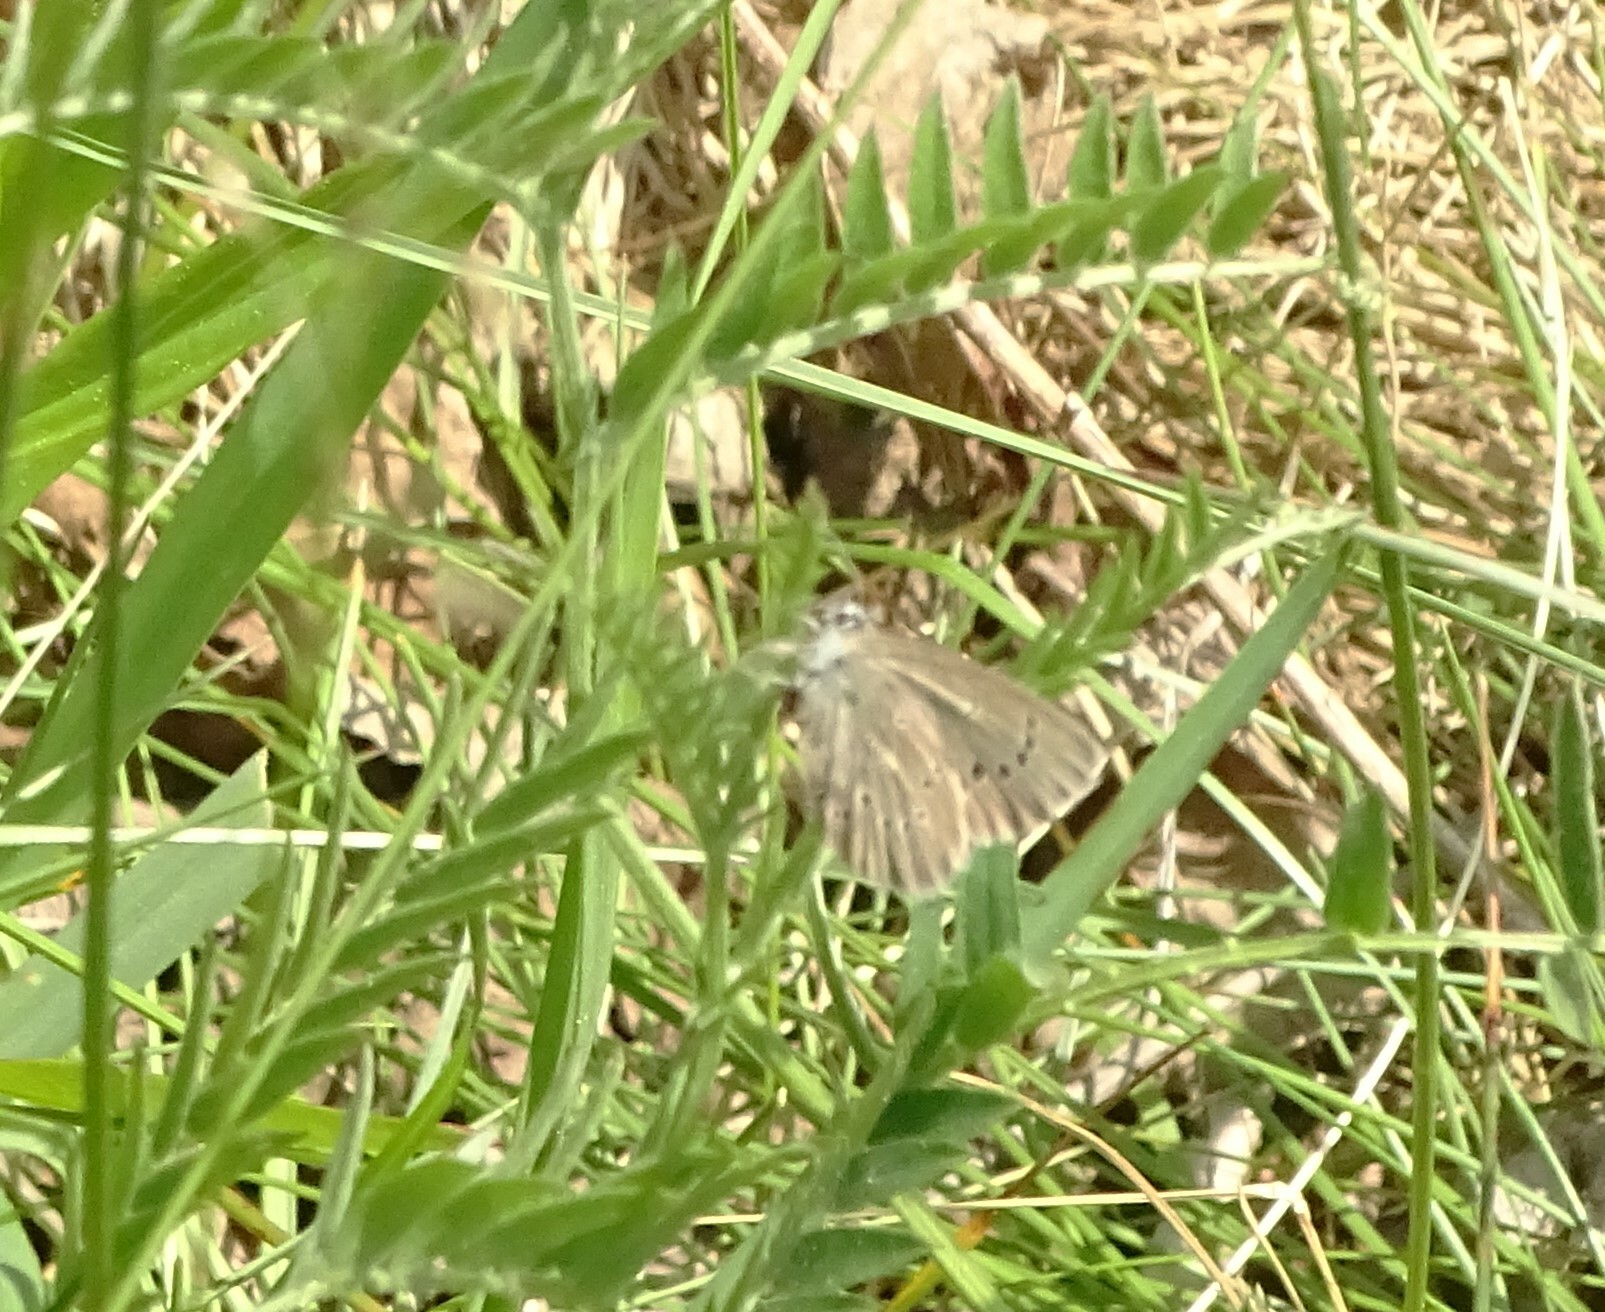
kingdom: Animalia
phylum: Arthropoda
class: Insecta
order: Lepidoptera
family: Lycaenidae
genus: Glaucopsyche
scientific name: Glaucopsyche lygdamus
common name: Silvery blue
